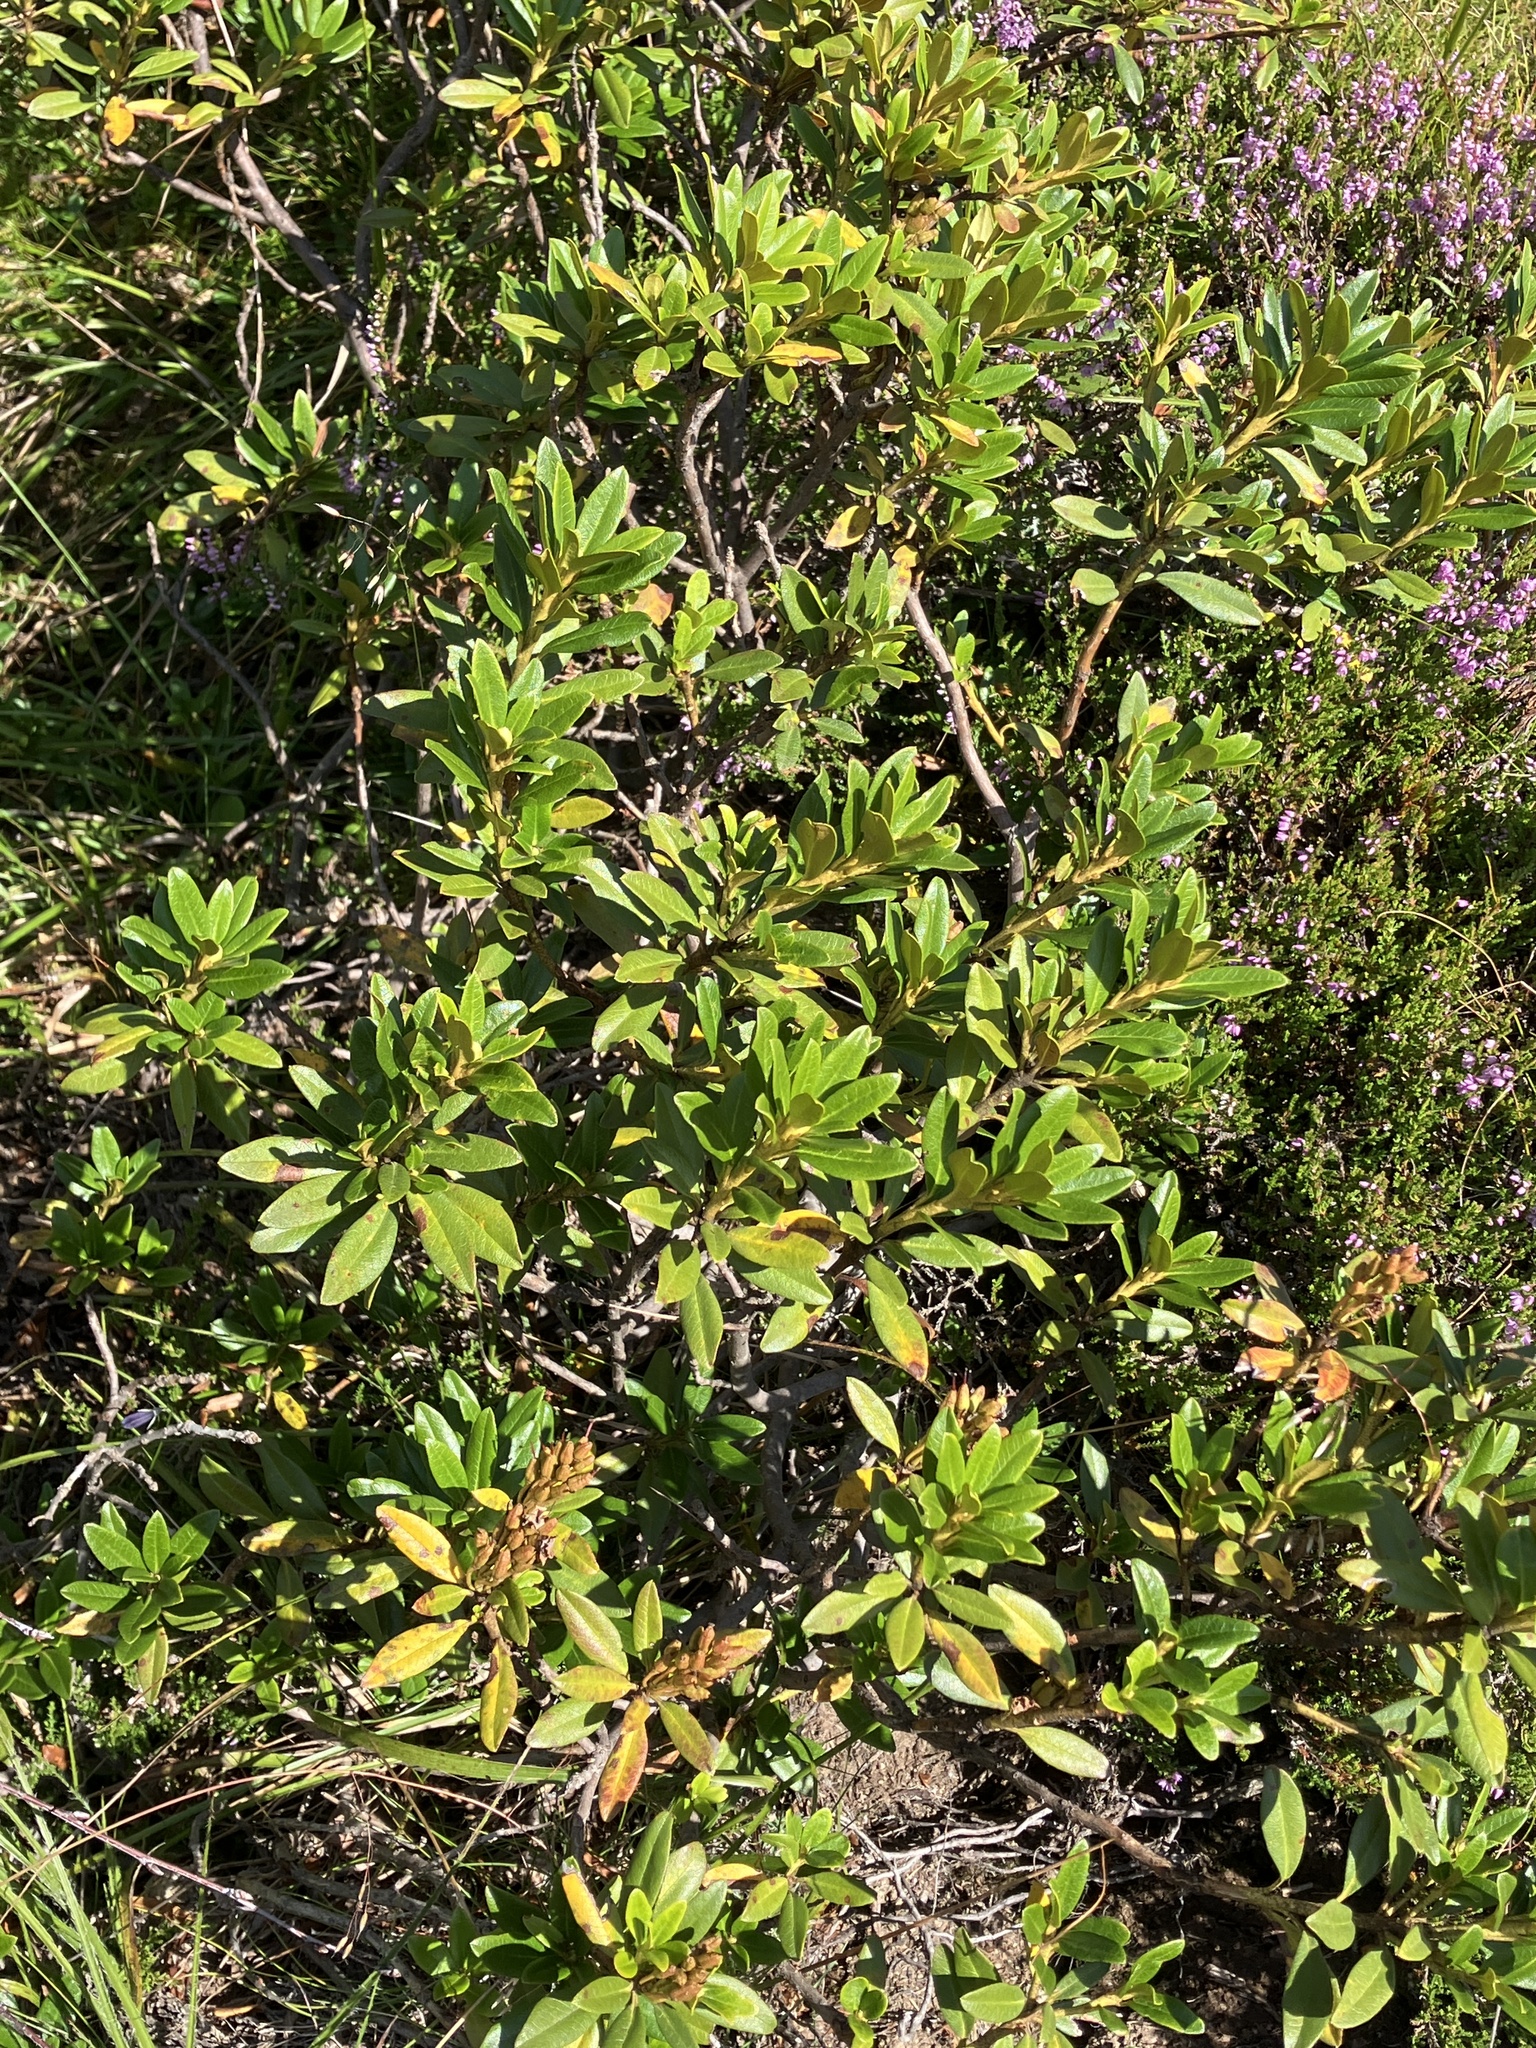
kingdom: Plantae
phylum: Tracheophyta
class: Magnoliopsida
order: Ericales
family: Ericaceae
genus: Rhododendron
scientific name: Rhododendron ferrugineum
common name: Alpenrose
